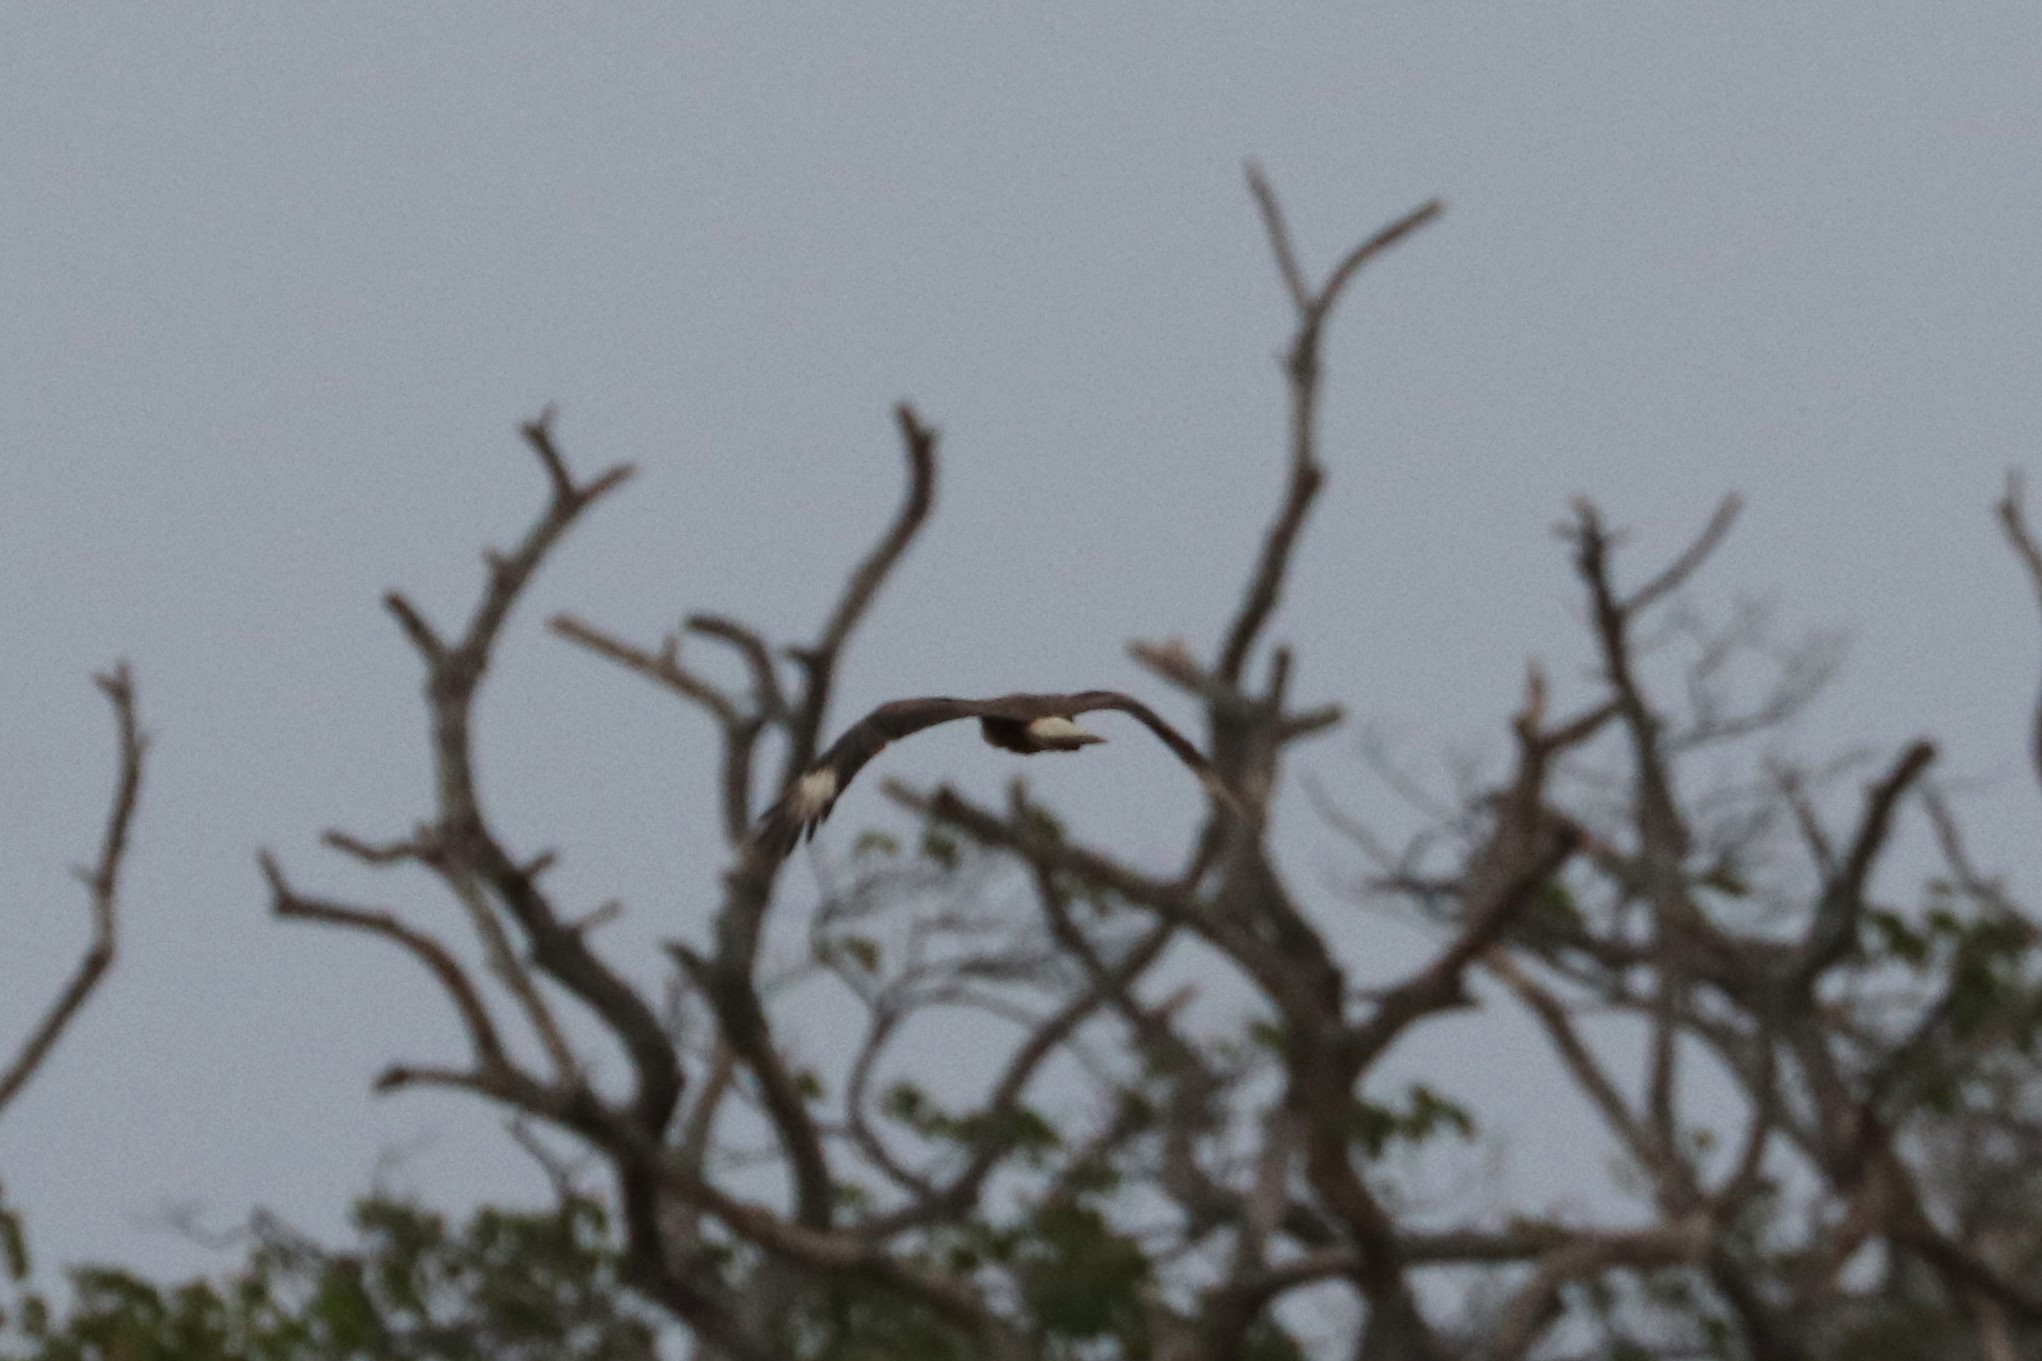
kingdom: Animalia
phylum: Chordata
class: Aves
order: Falconiformes
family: Falconidae
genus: Caracara
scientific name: Caracara plancus
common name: Southern caracara
